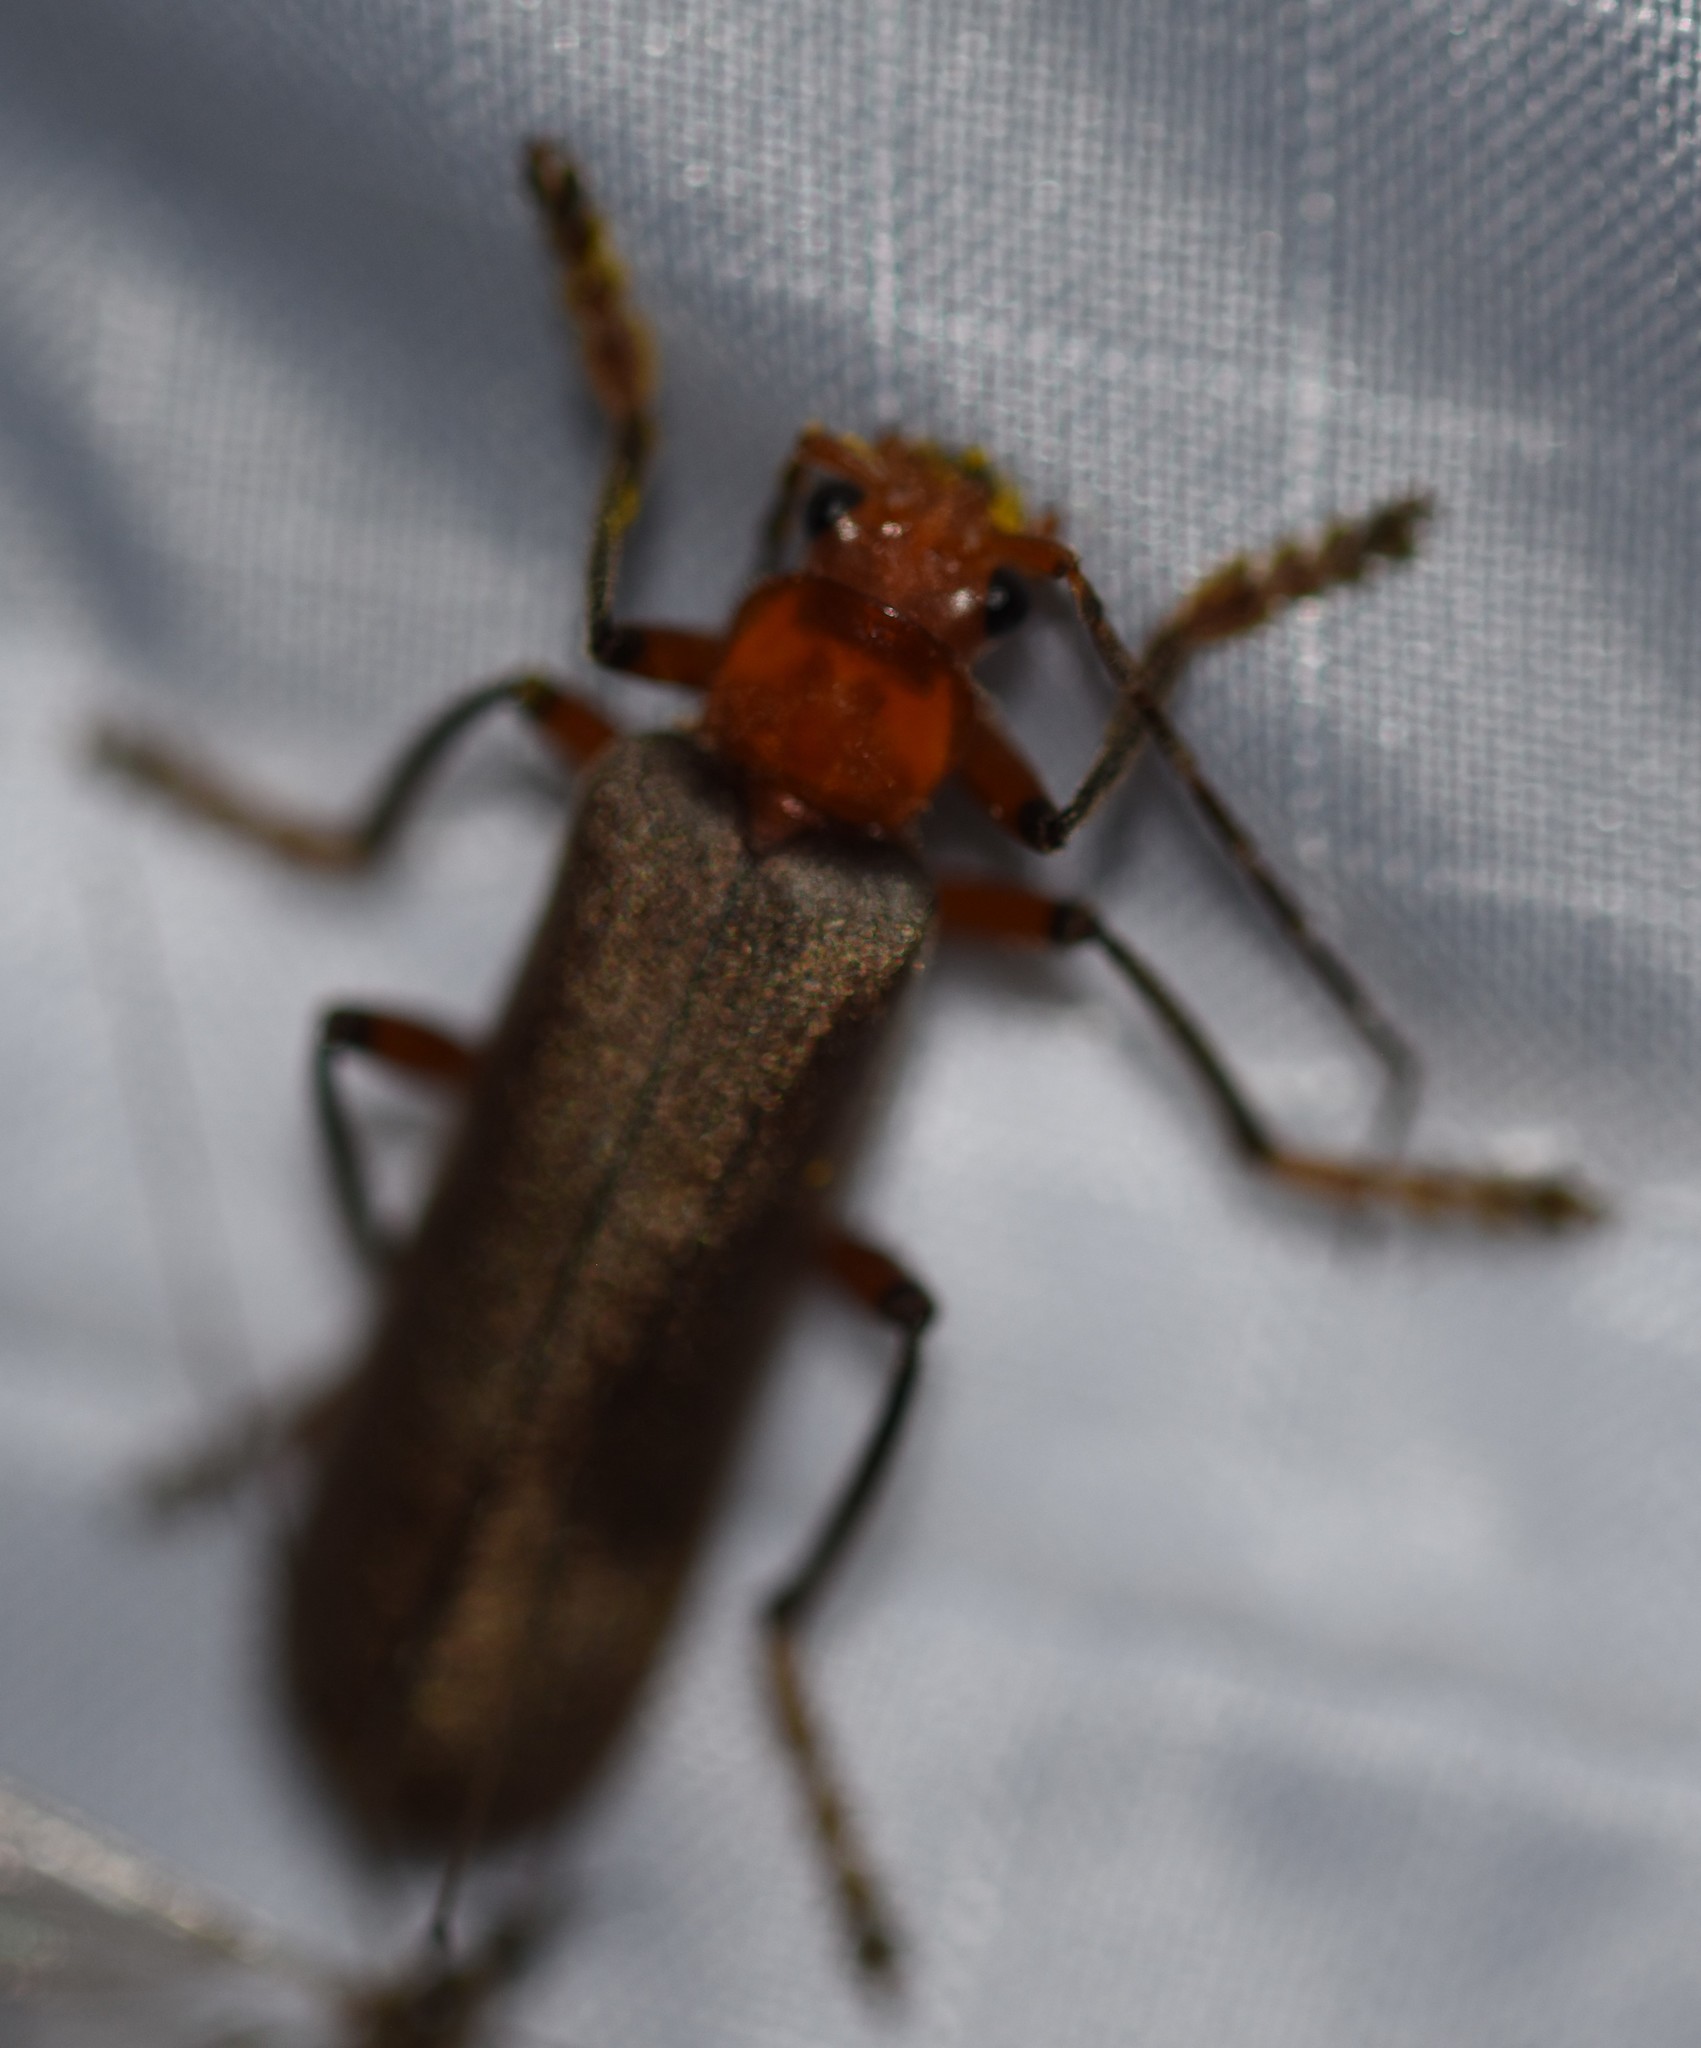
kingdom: Animalia
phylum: Arthropoda
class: Insecta
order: Coleoptera
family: Cantharidae
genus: Pacificanthia
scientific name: Pacificanthia consors
